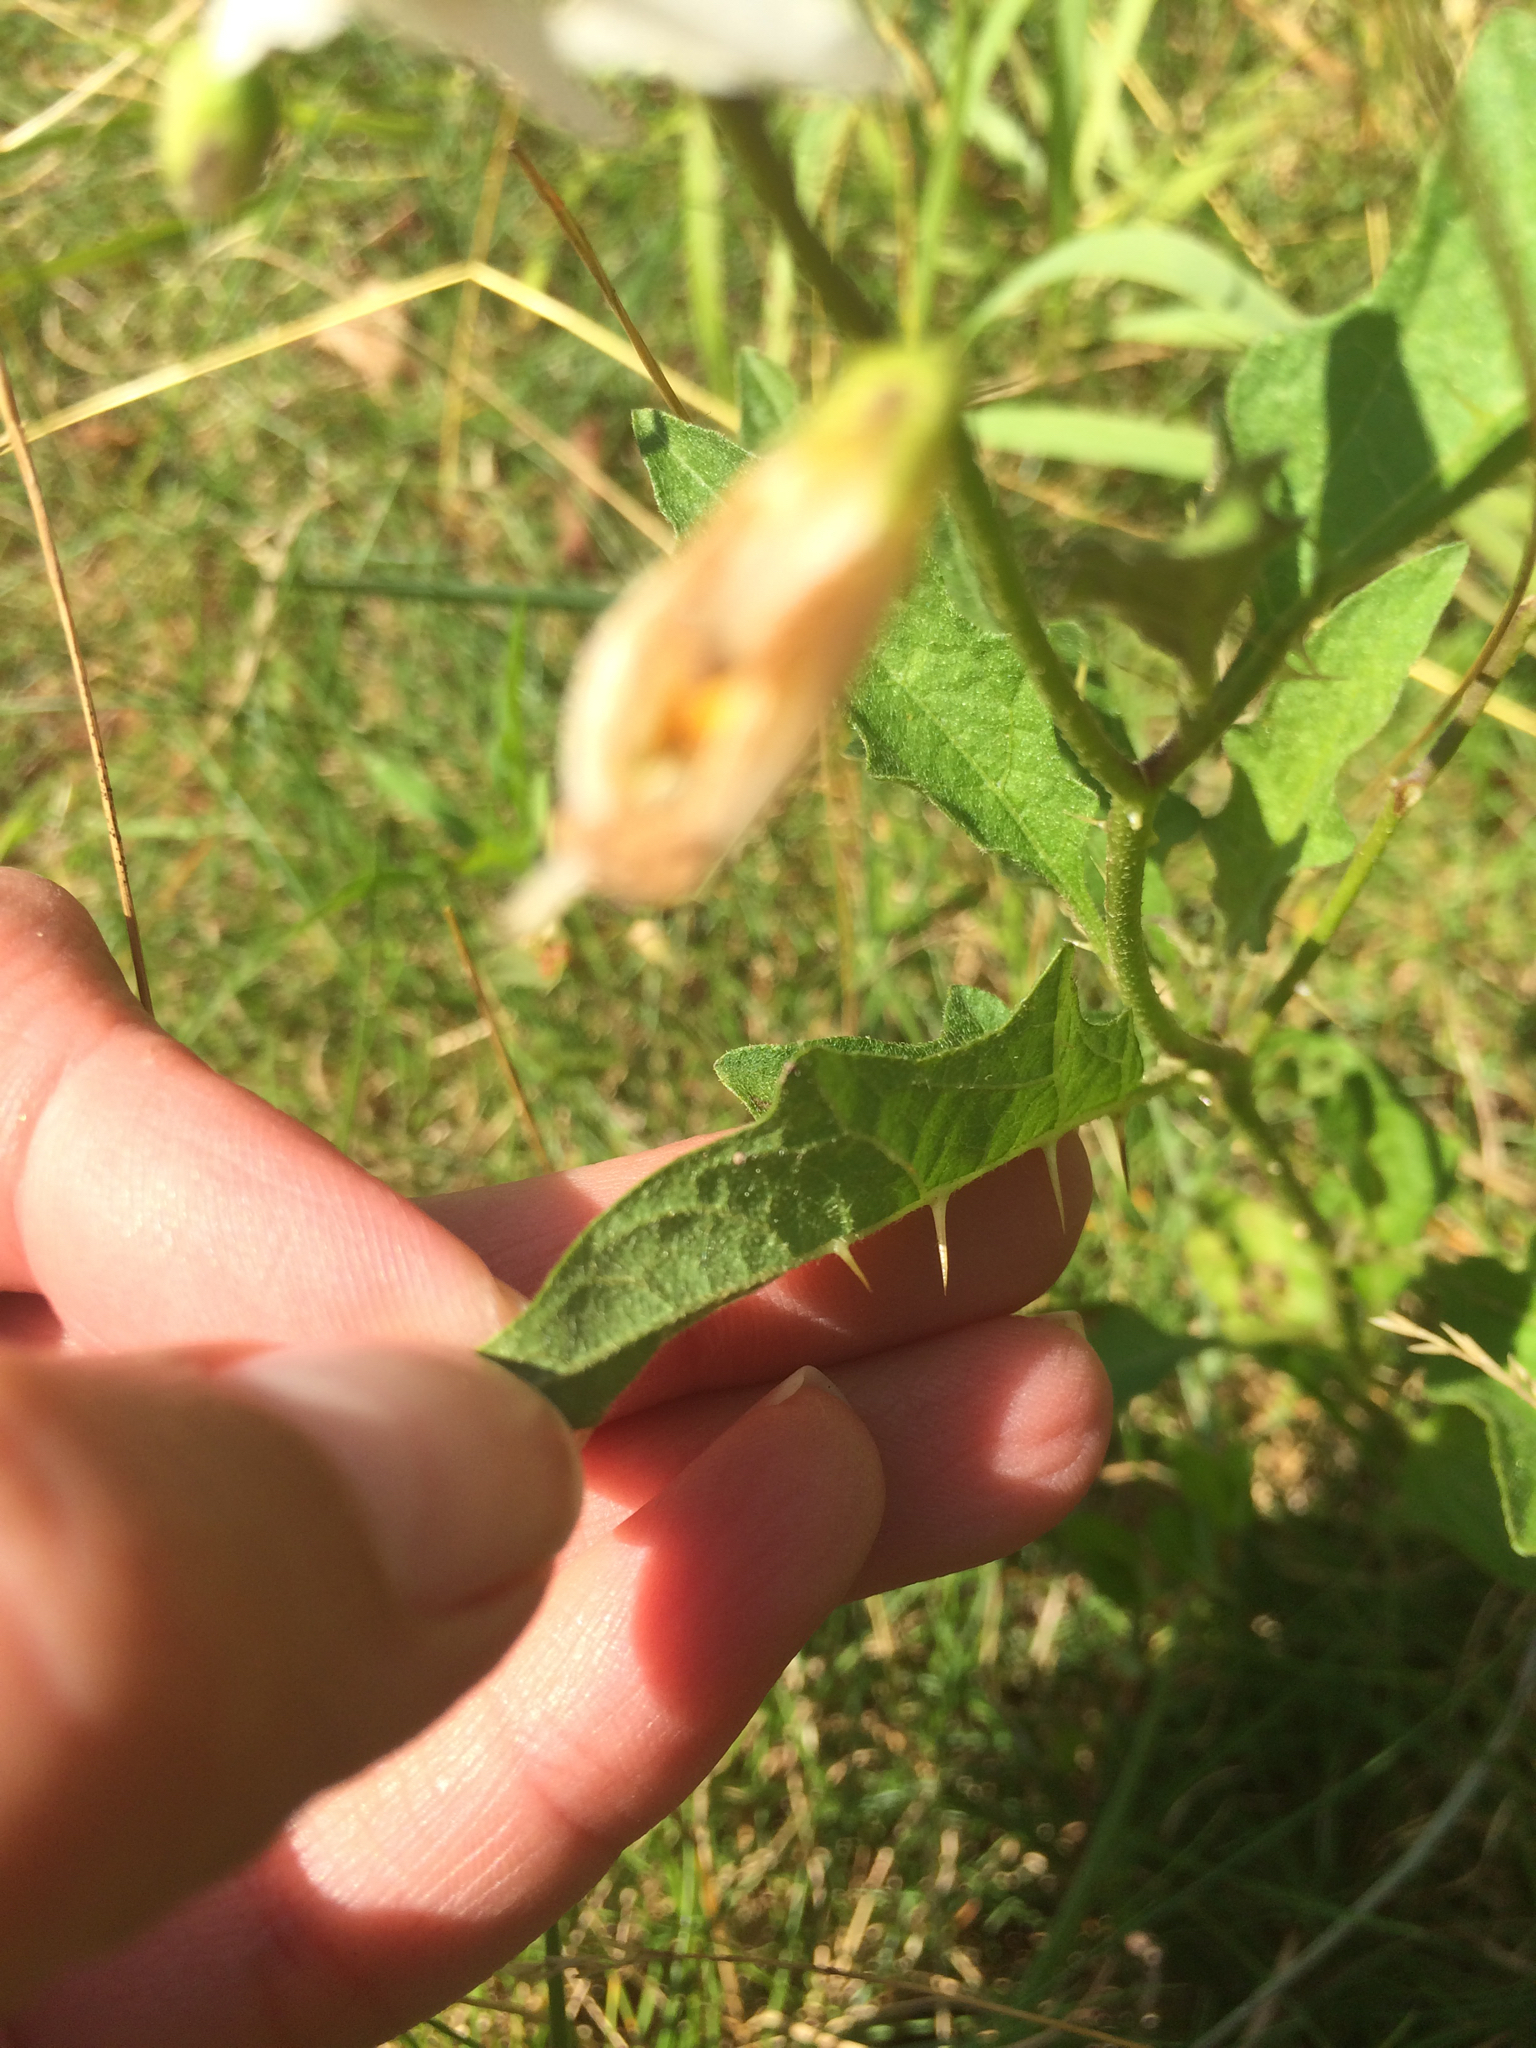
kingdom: Plantae
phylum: Tracheophyta
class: Magnoliopsida
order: Solanales
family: Solanaceae
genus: Solanum
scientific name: Solanum carolinense
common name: Horse-nettle
